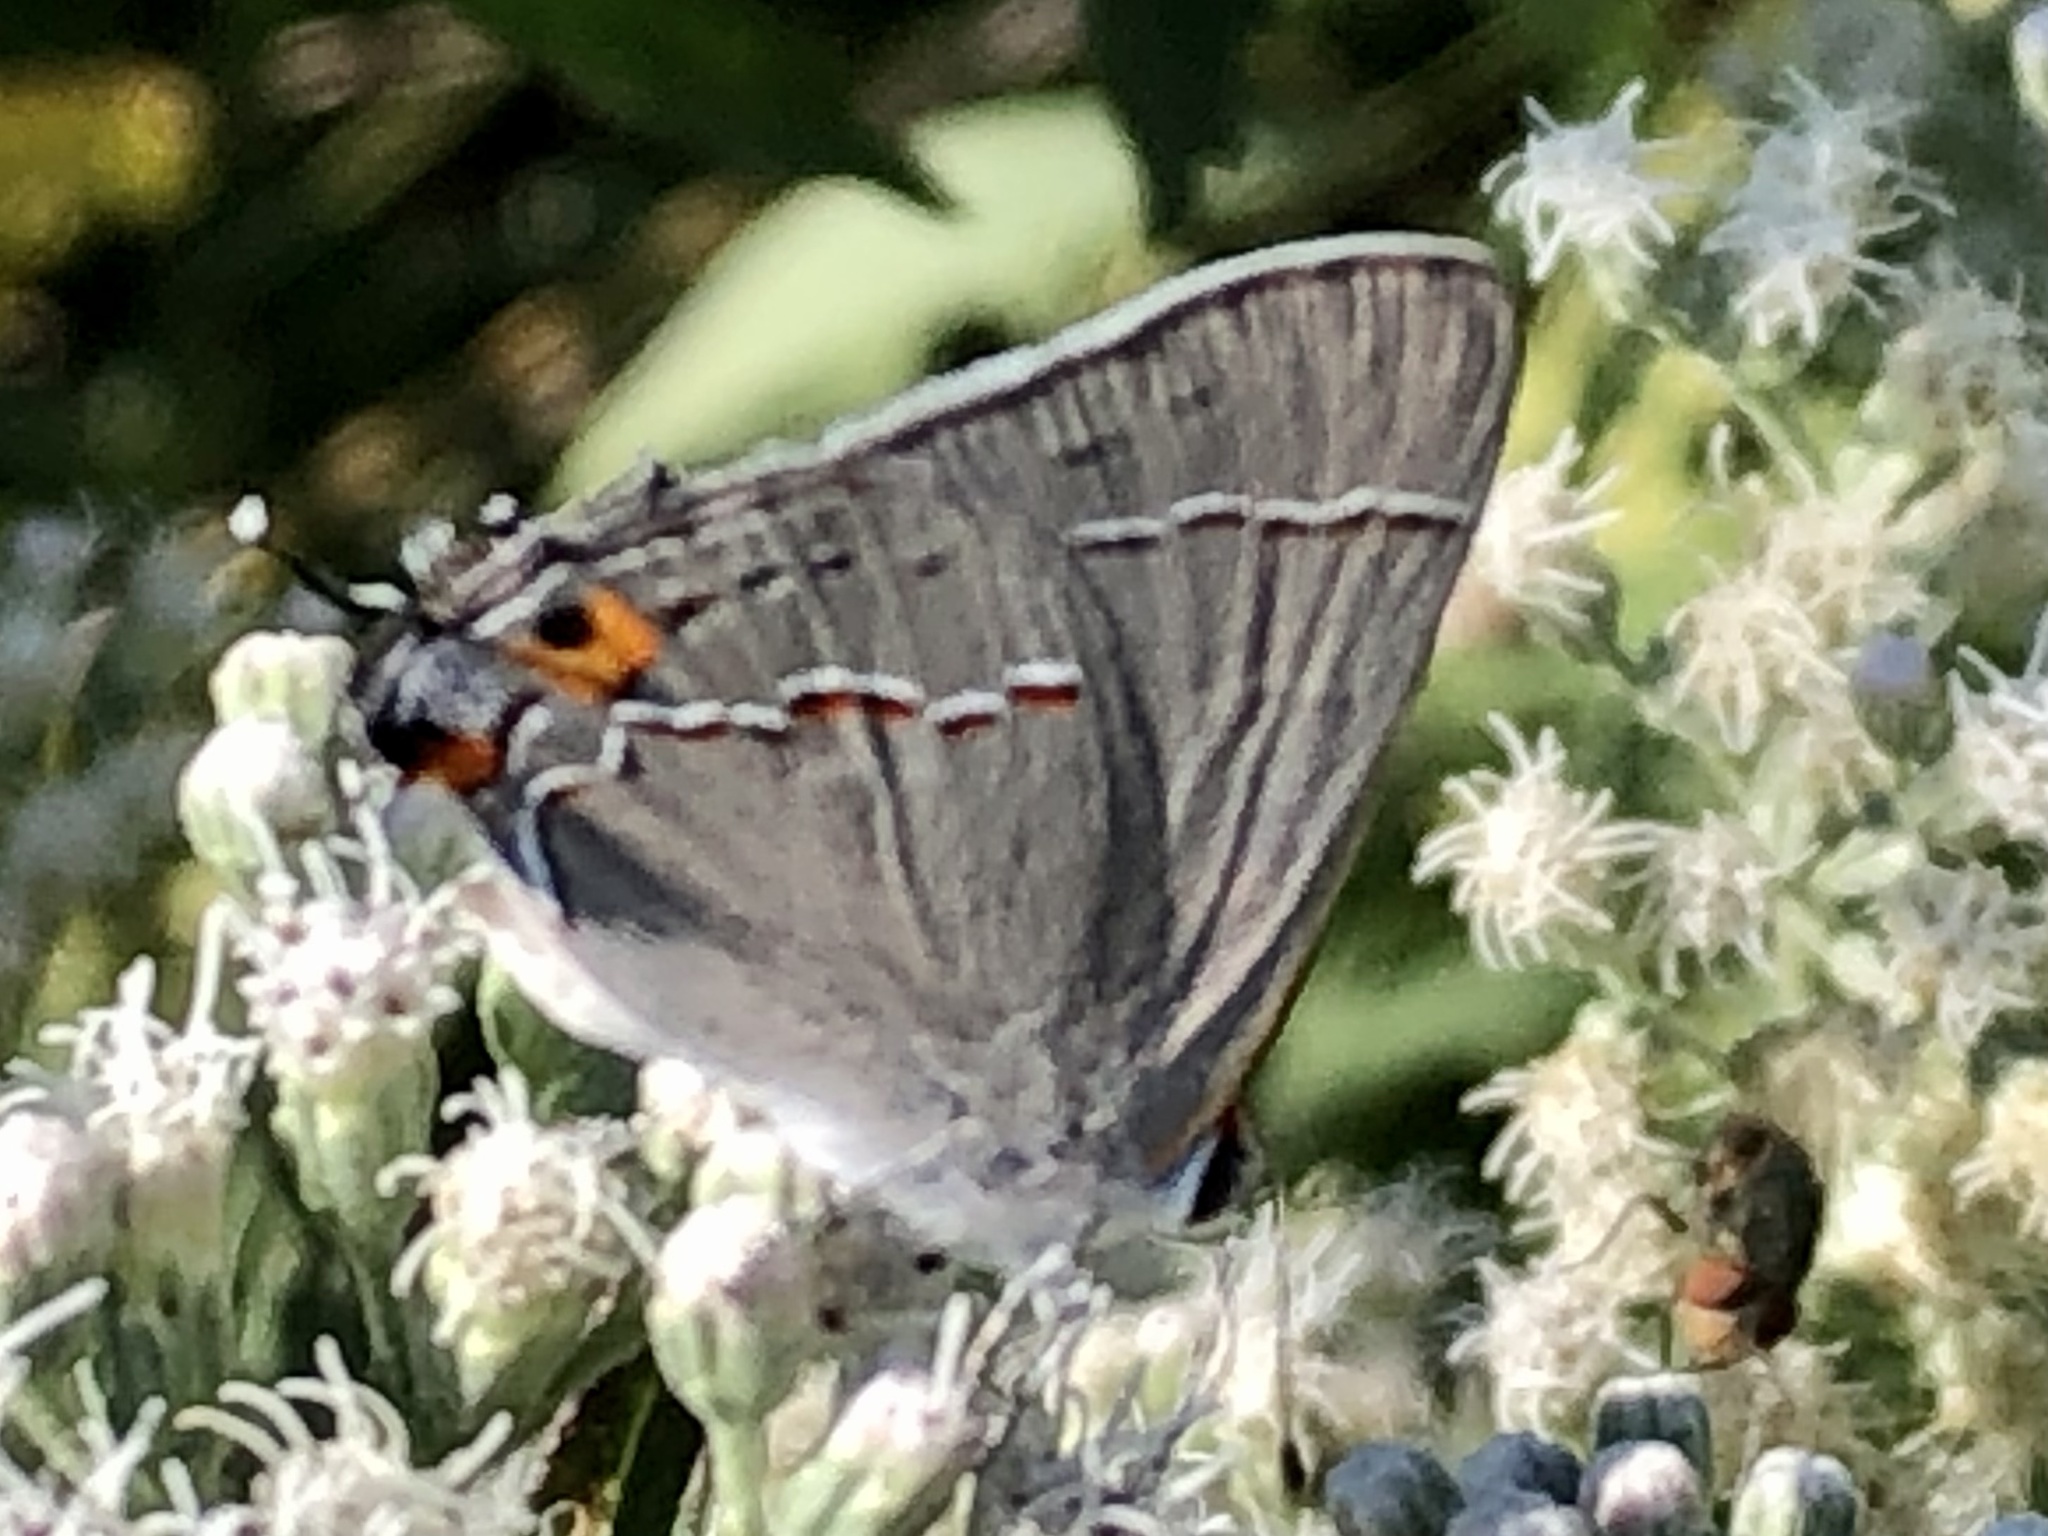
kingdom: Animalia
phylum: Arthropoda
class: Insecta
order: Lepidoptera
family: Lycaenidae
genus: Strymon
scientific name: Strymon melinus
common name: Gray hairstreak
